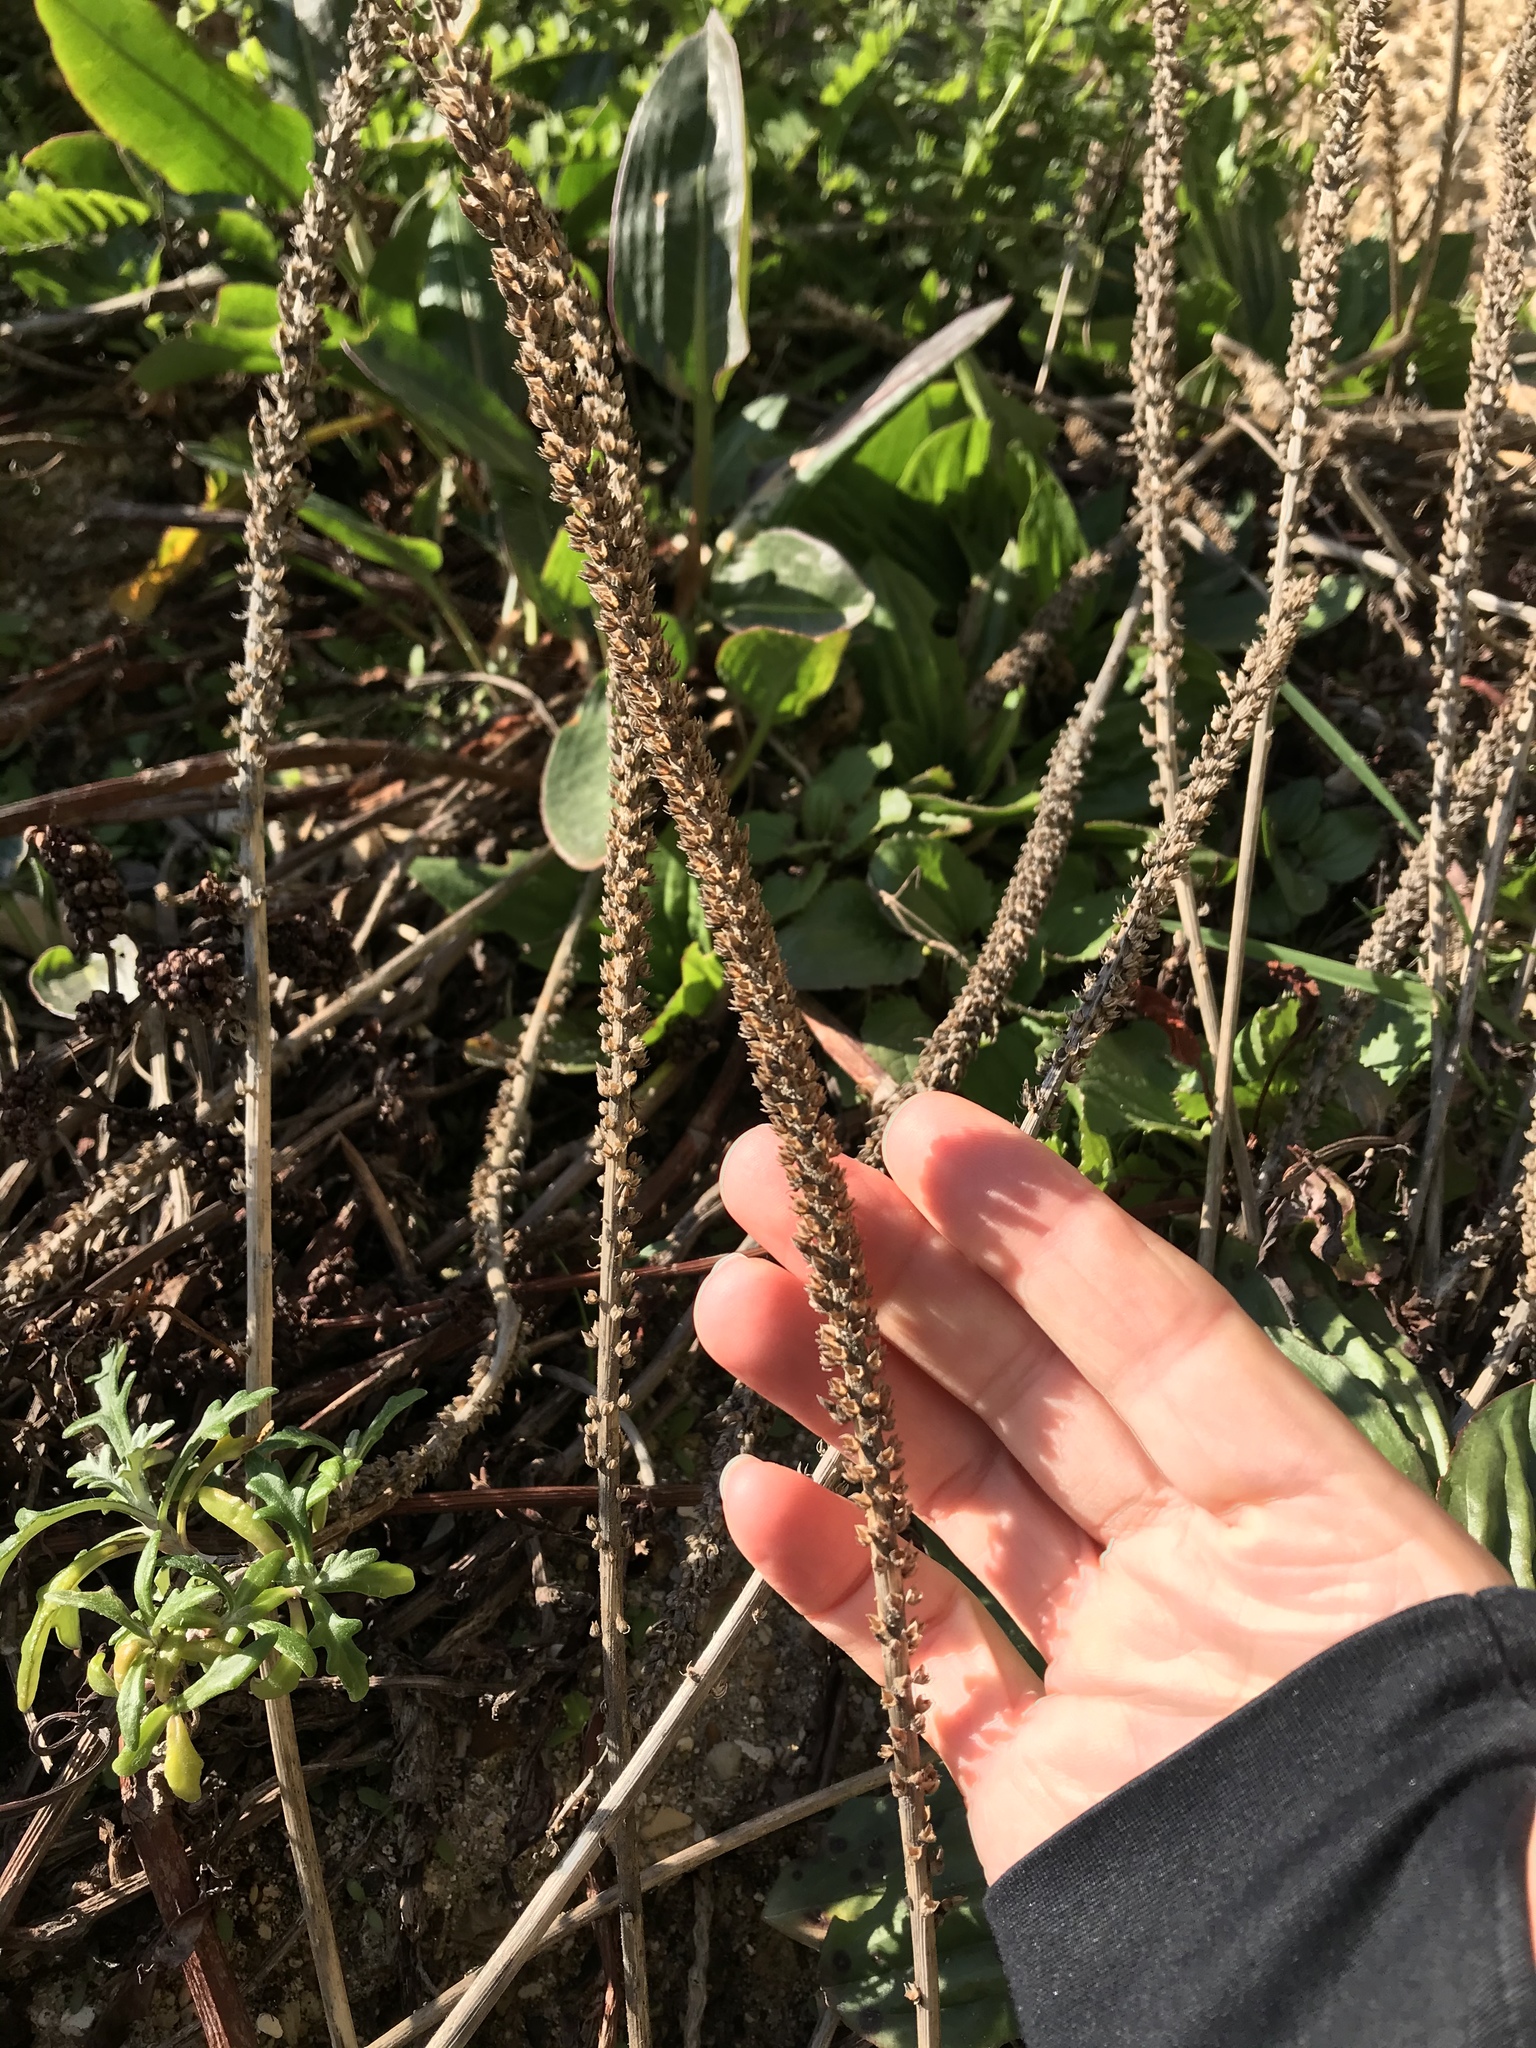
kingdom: Plantae
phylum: Tracheophyta
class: Magnoliopsida
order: Lamiales
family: Plantaginaceae
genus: Plantago
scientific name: Plantago subnuda
